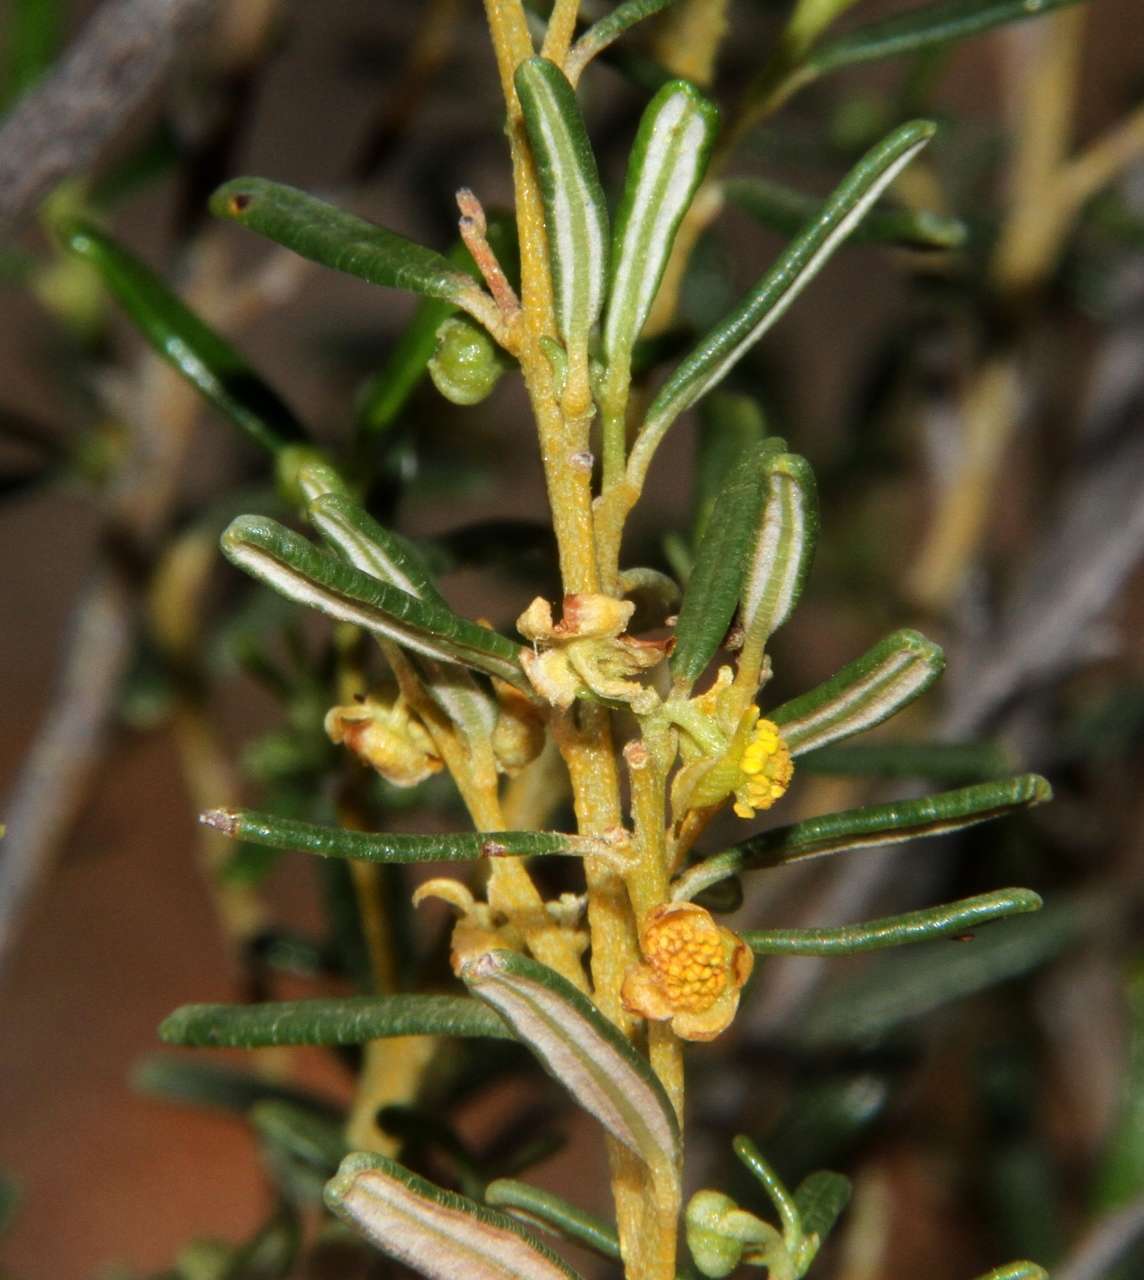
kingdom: Plantae
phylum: Tracheophyta
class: Magnoliopsida
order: Malpighiales
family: Euphorbiaceae
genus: Beyeria
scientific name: Beyeria lechenaultii
